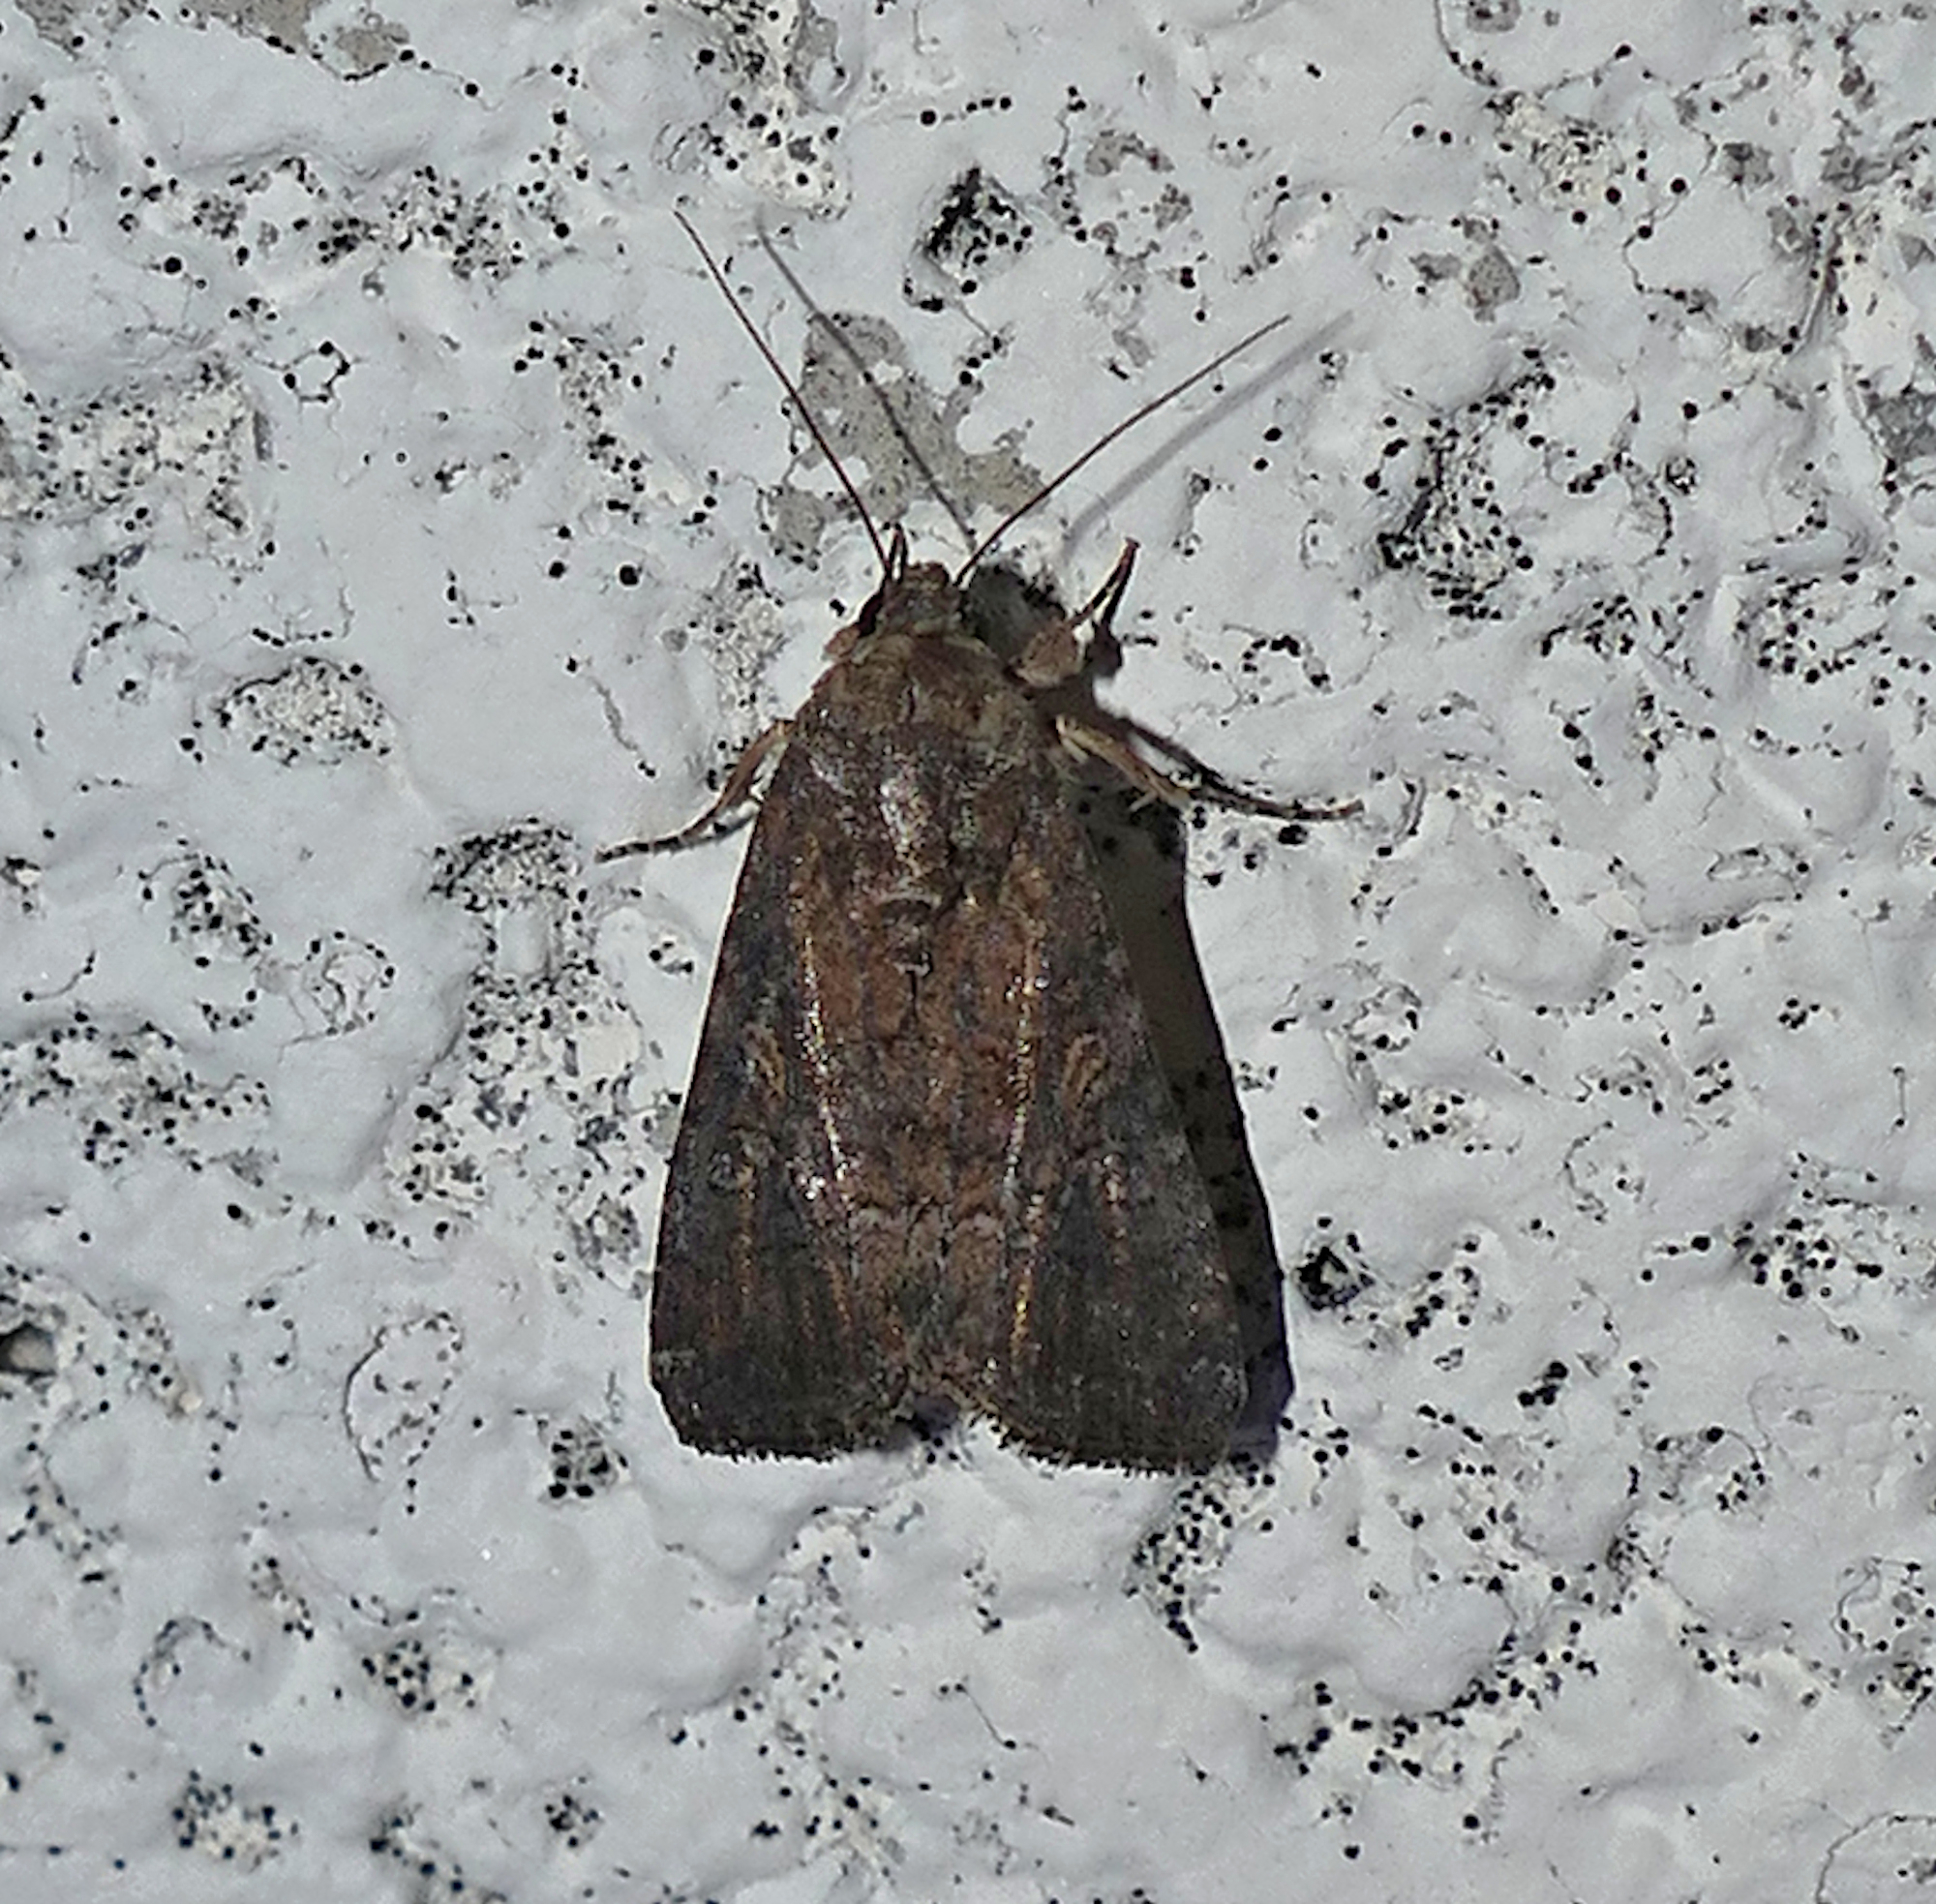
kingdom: Animalia
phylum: Arthropoda
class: Insecta
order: Lepidoptera
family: Noctuidae
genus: Spodoptera
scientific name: Spodoptera frugiperda
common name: Fall armyworm
